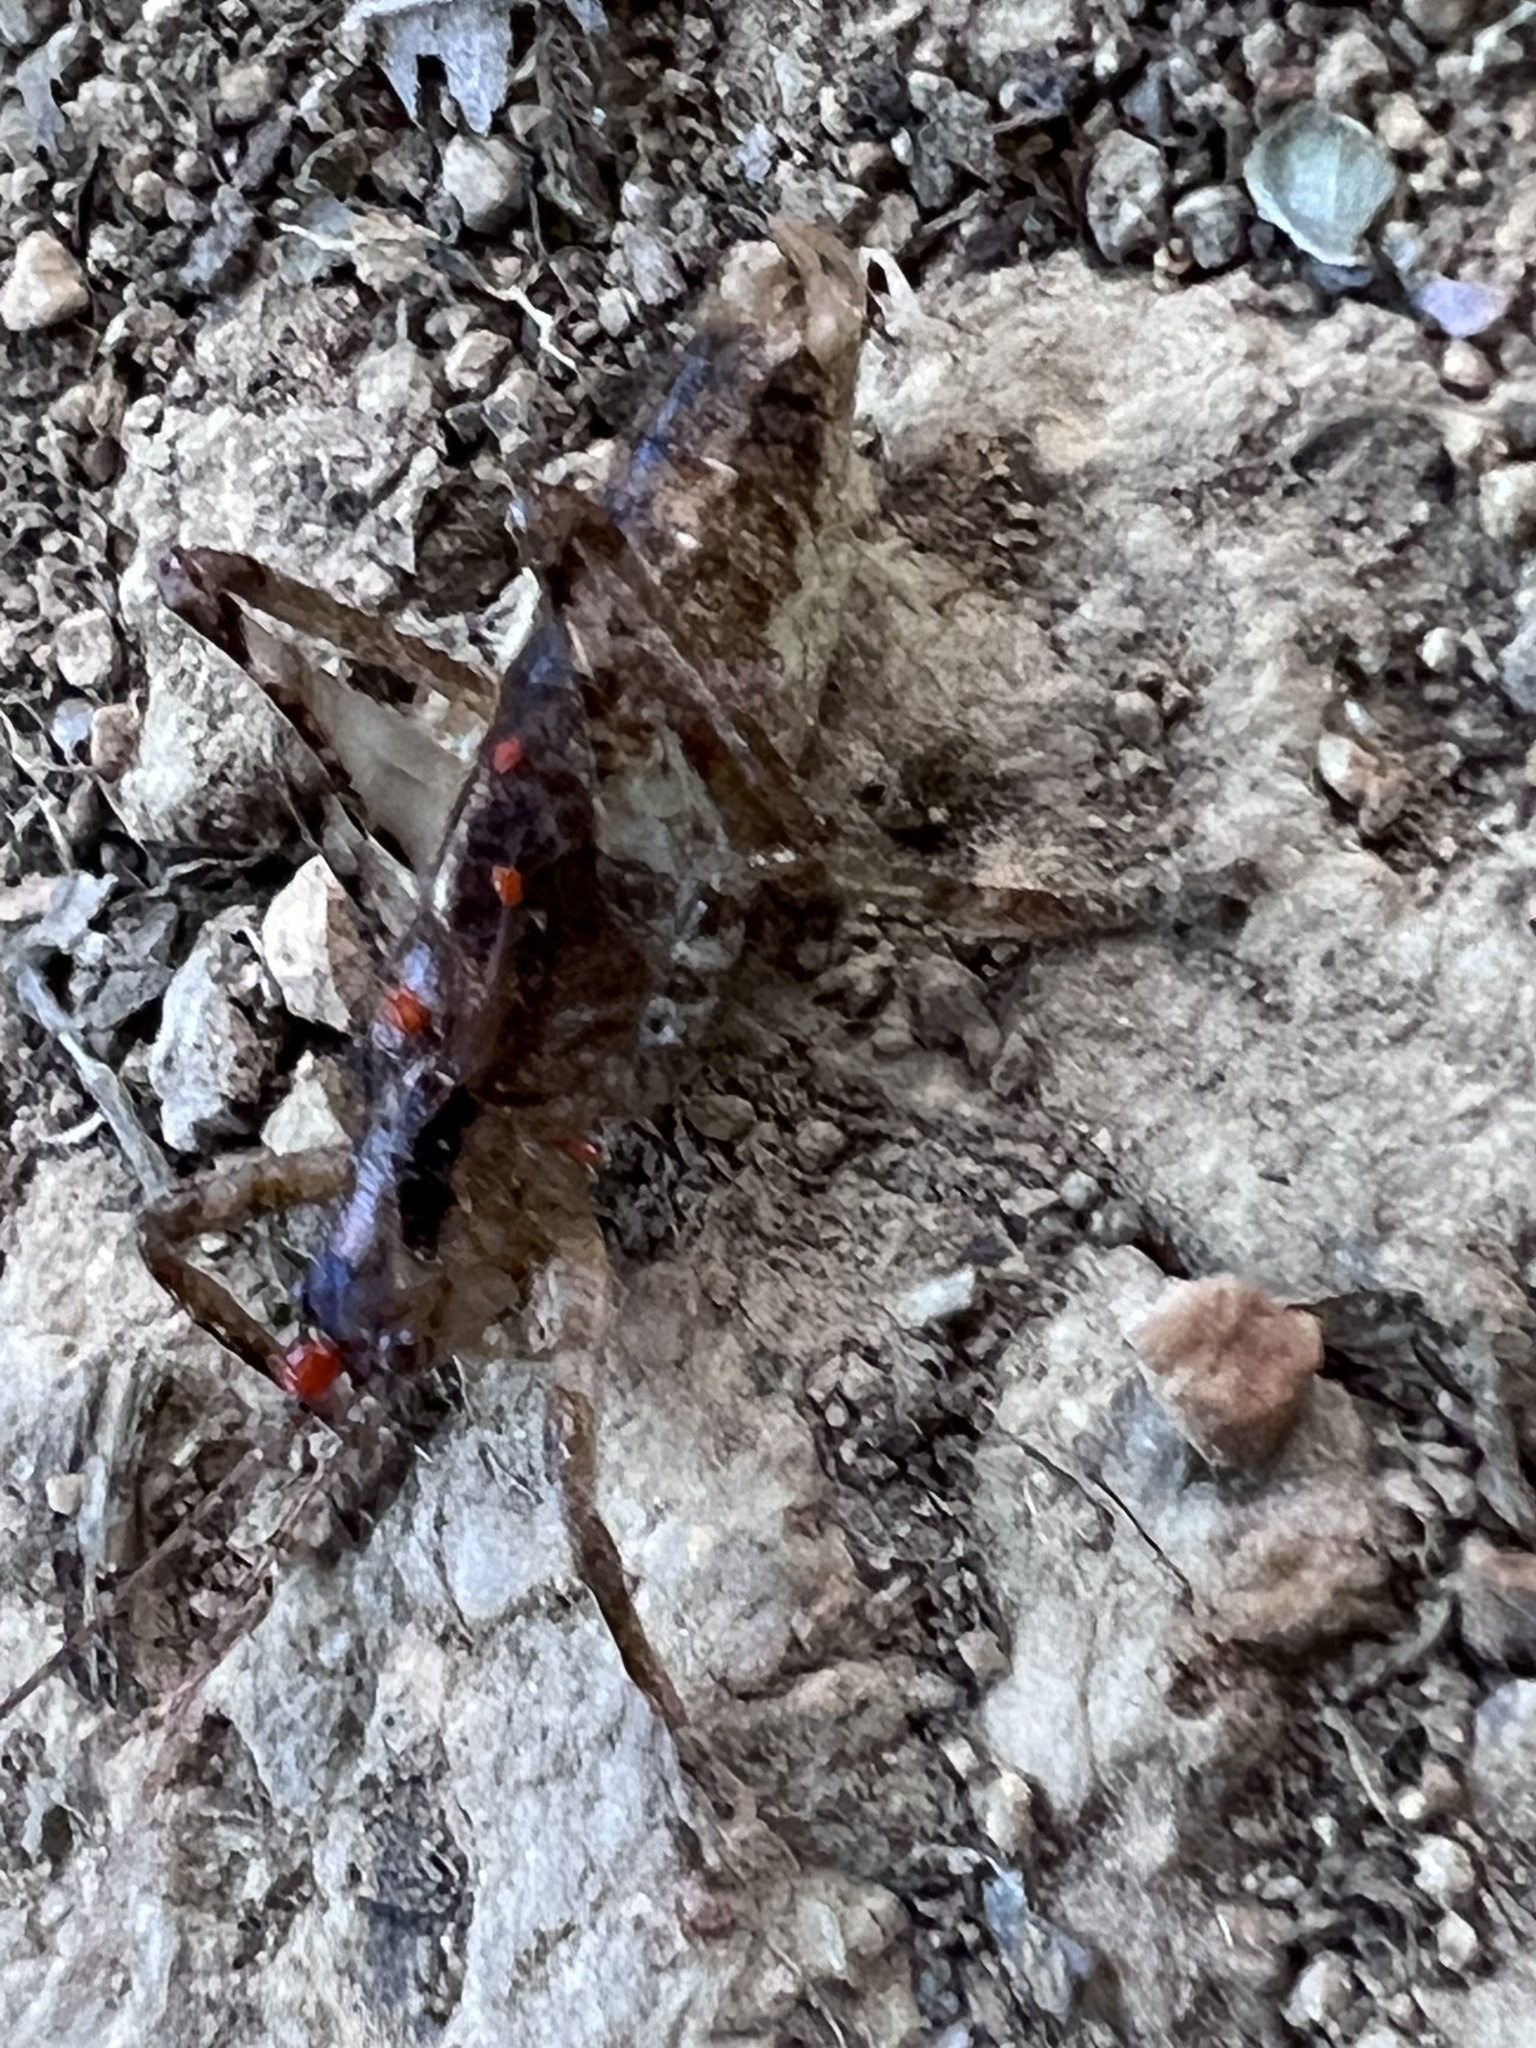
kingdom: Animalia
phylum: Arthropoda
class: Insecta
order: Orthoptera
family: Tettigoniidae
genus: Nannonotus
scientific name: Nannonotus brevipennis
